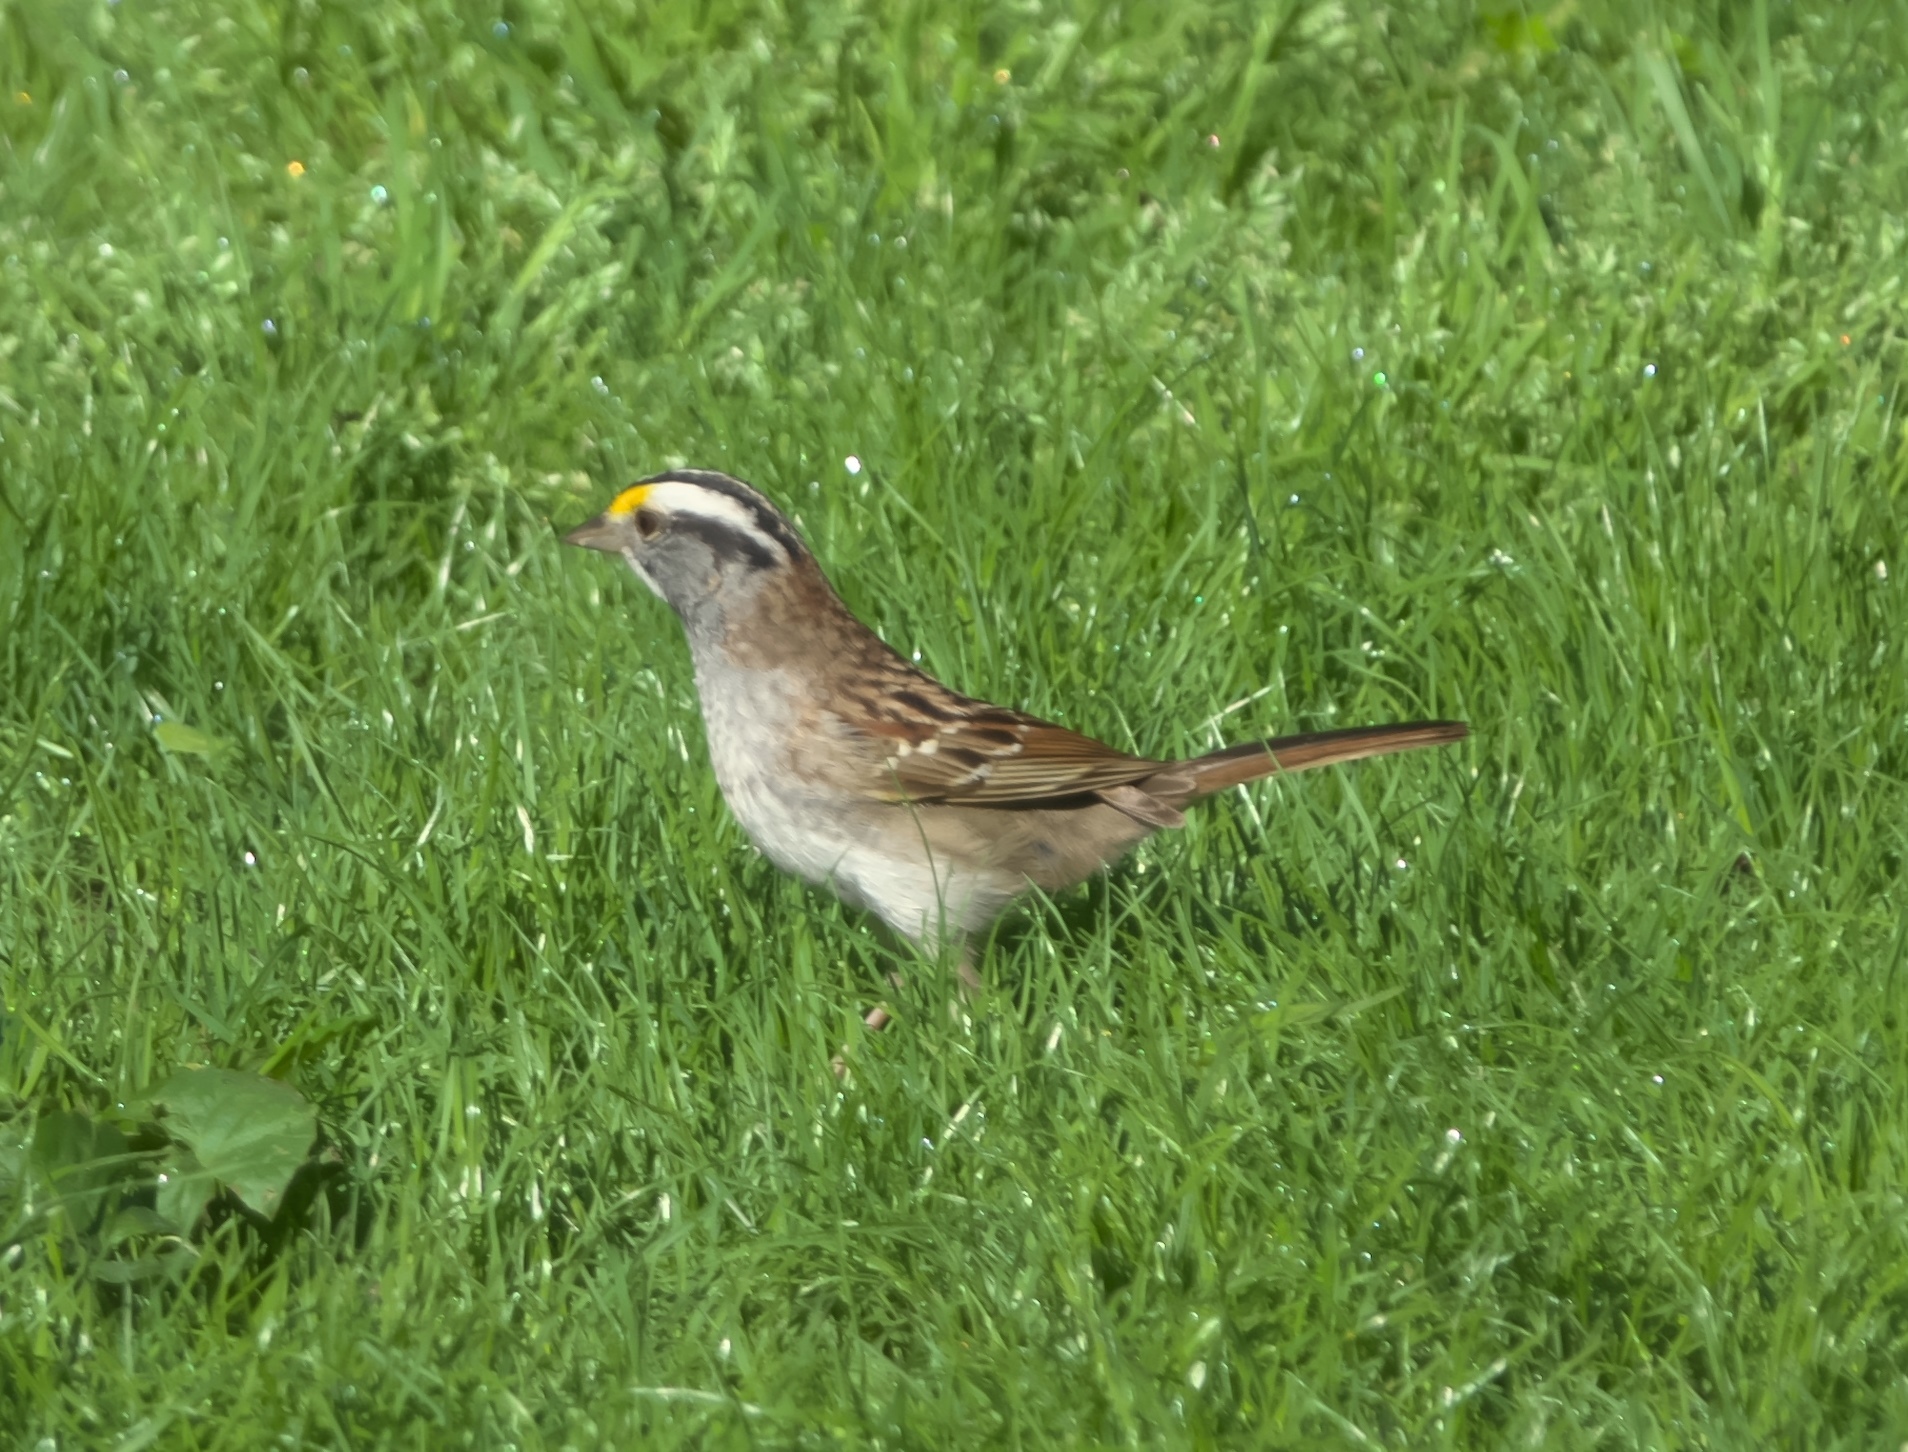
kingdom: Animalia
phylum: Chordata
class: Aves
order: Passeriformes
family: Passerellidae
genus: Zonotrichia
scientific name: Zonotrichia albicollis
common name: White-throated sparrow
